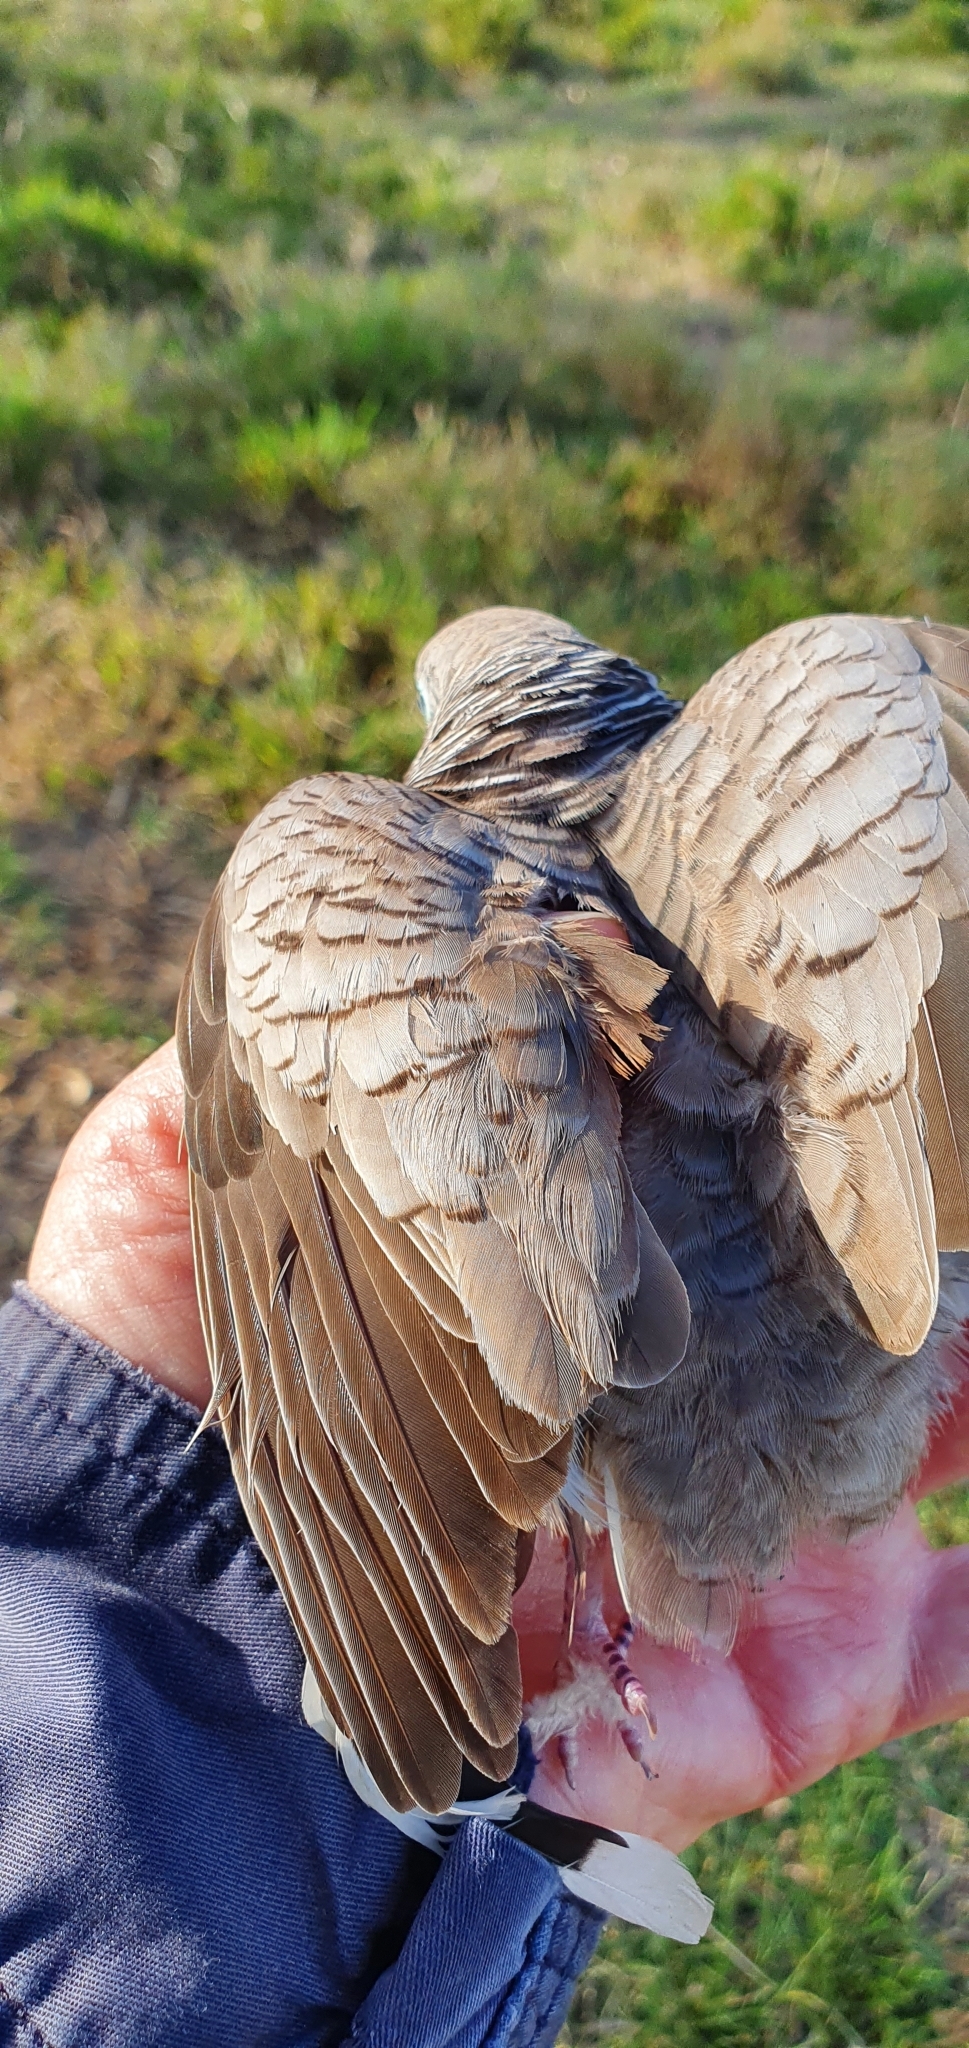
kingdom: Animalia
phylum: Chordata
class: Aves
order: Columbiformes
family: Columbidae
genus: Geopelia
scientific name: Geopelia placida
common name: Peaceful dove
